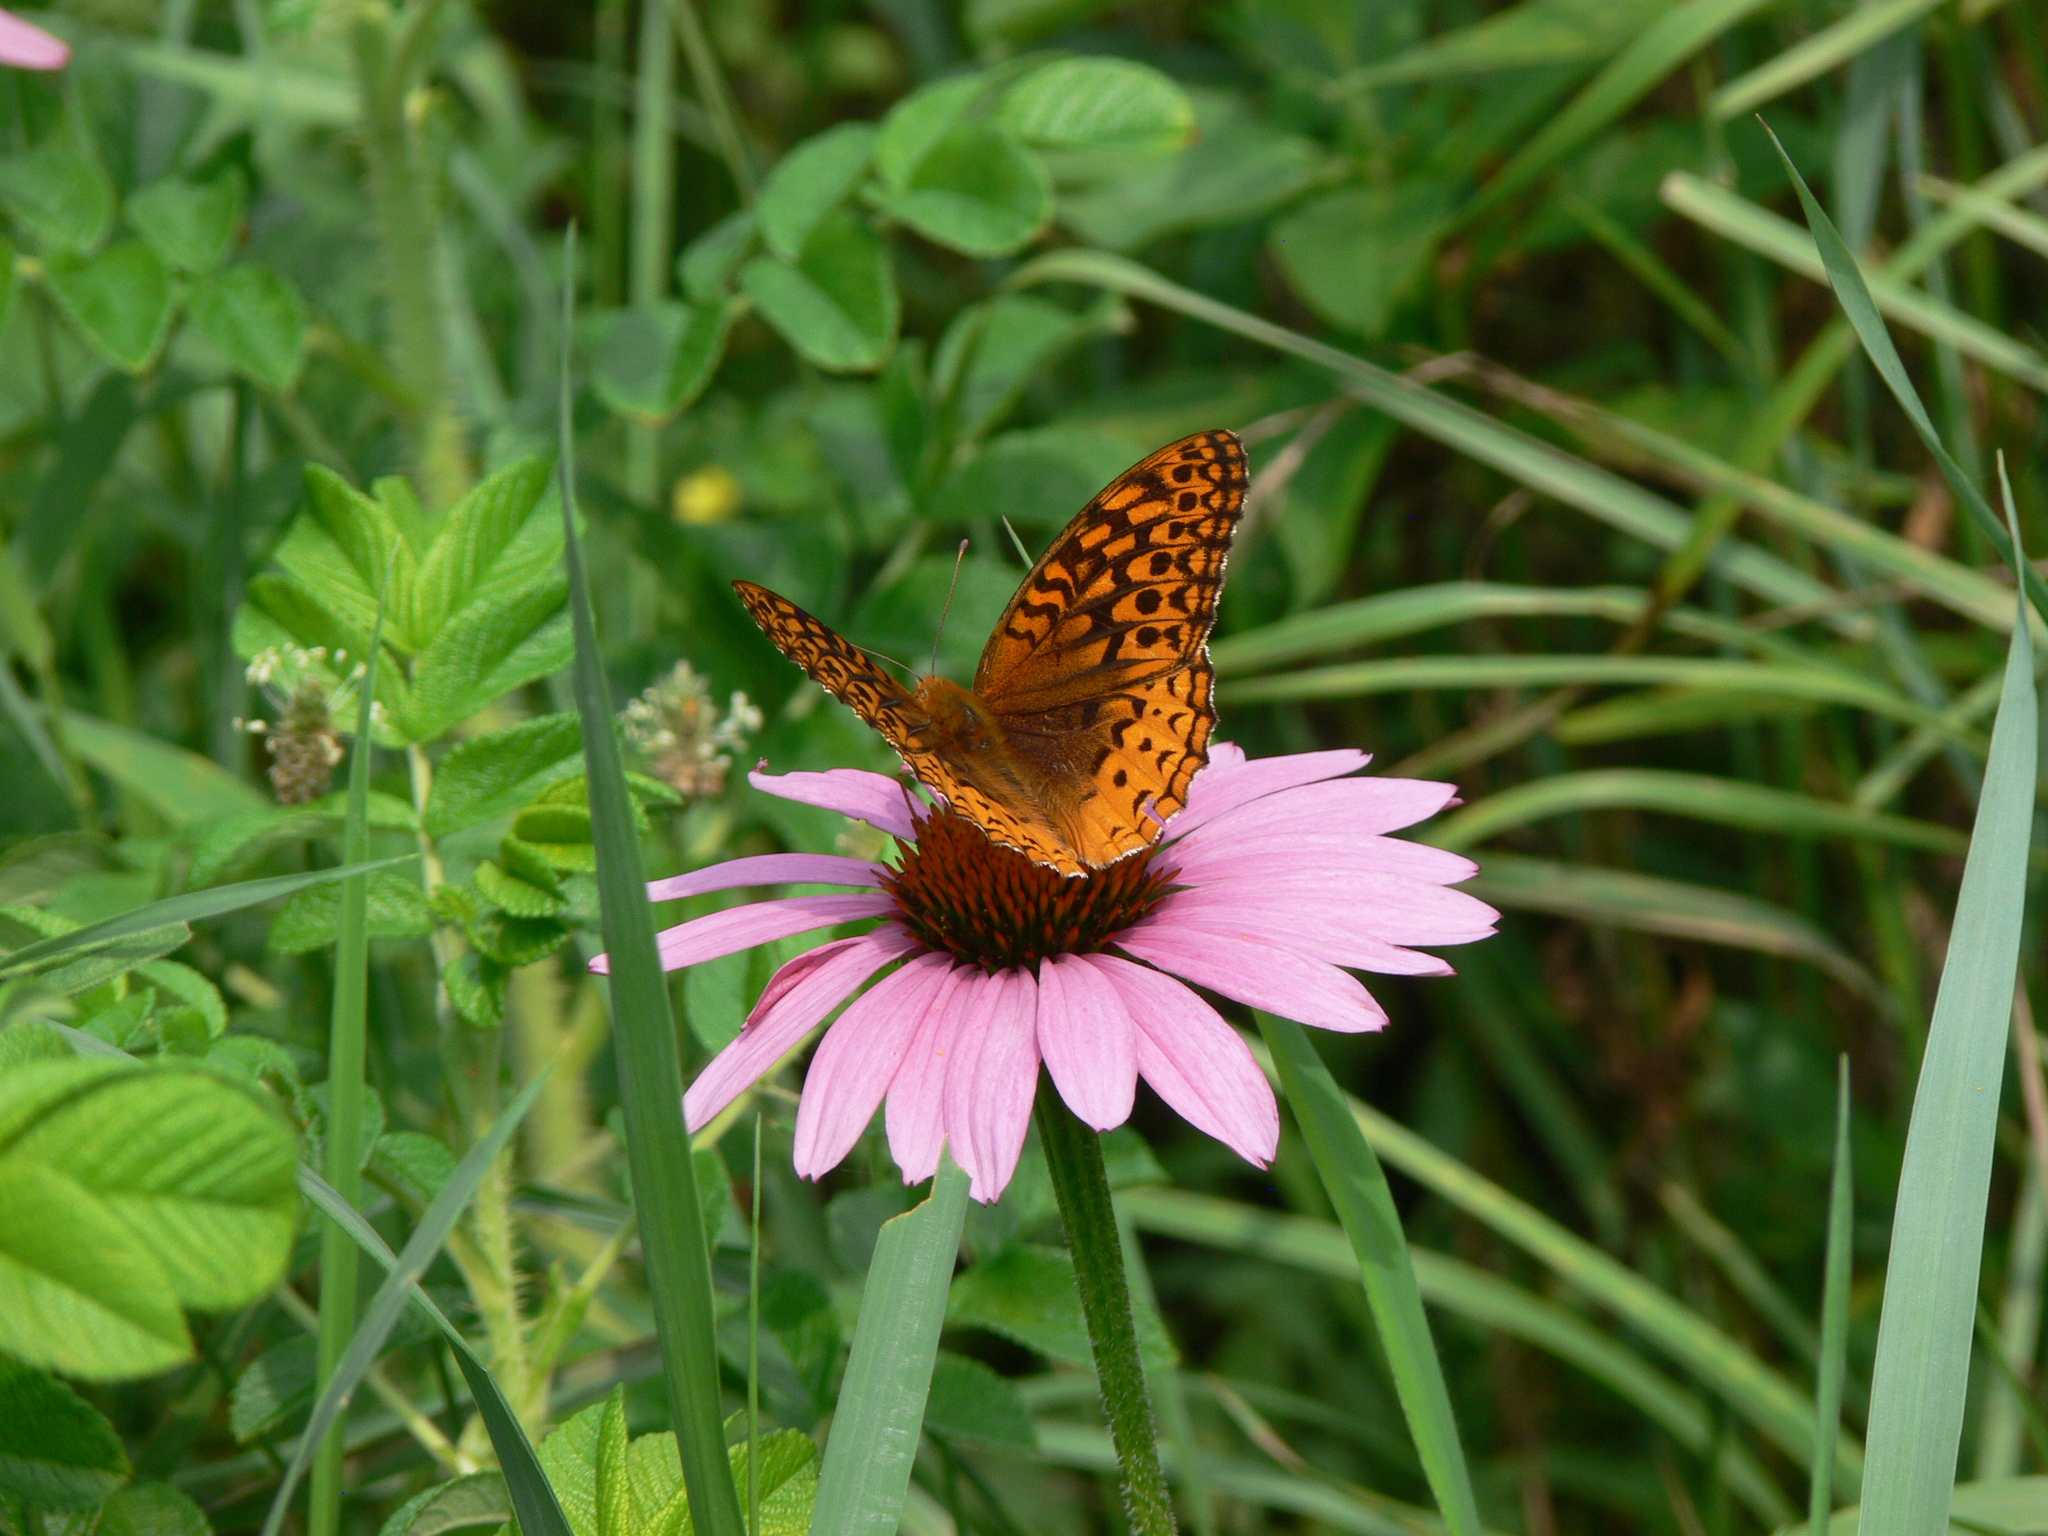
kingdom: Animalia
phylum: Arthropoda
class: Insecta
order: Lepidoptera
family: Nymphalidae
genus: Speyeria
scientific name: Speyeria cybele
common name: Great spangled fritillary
